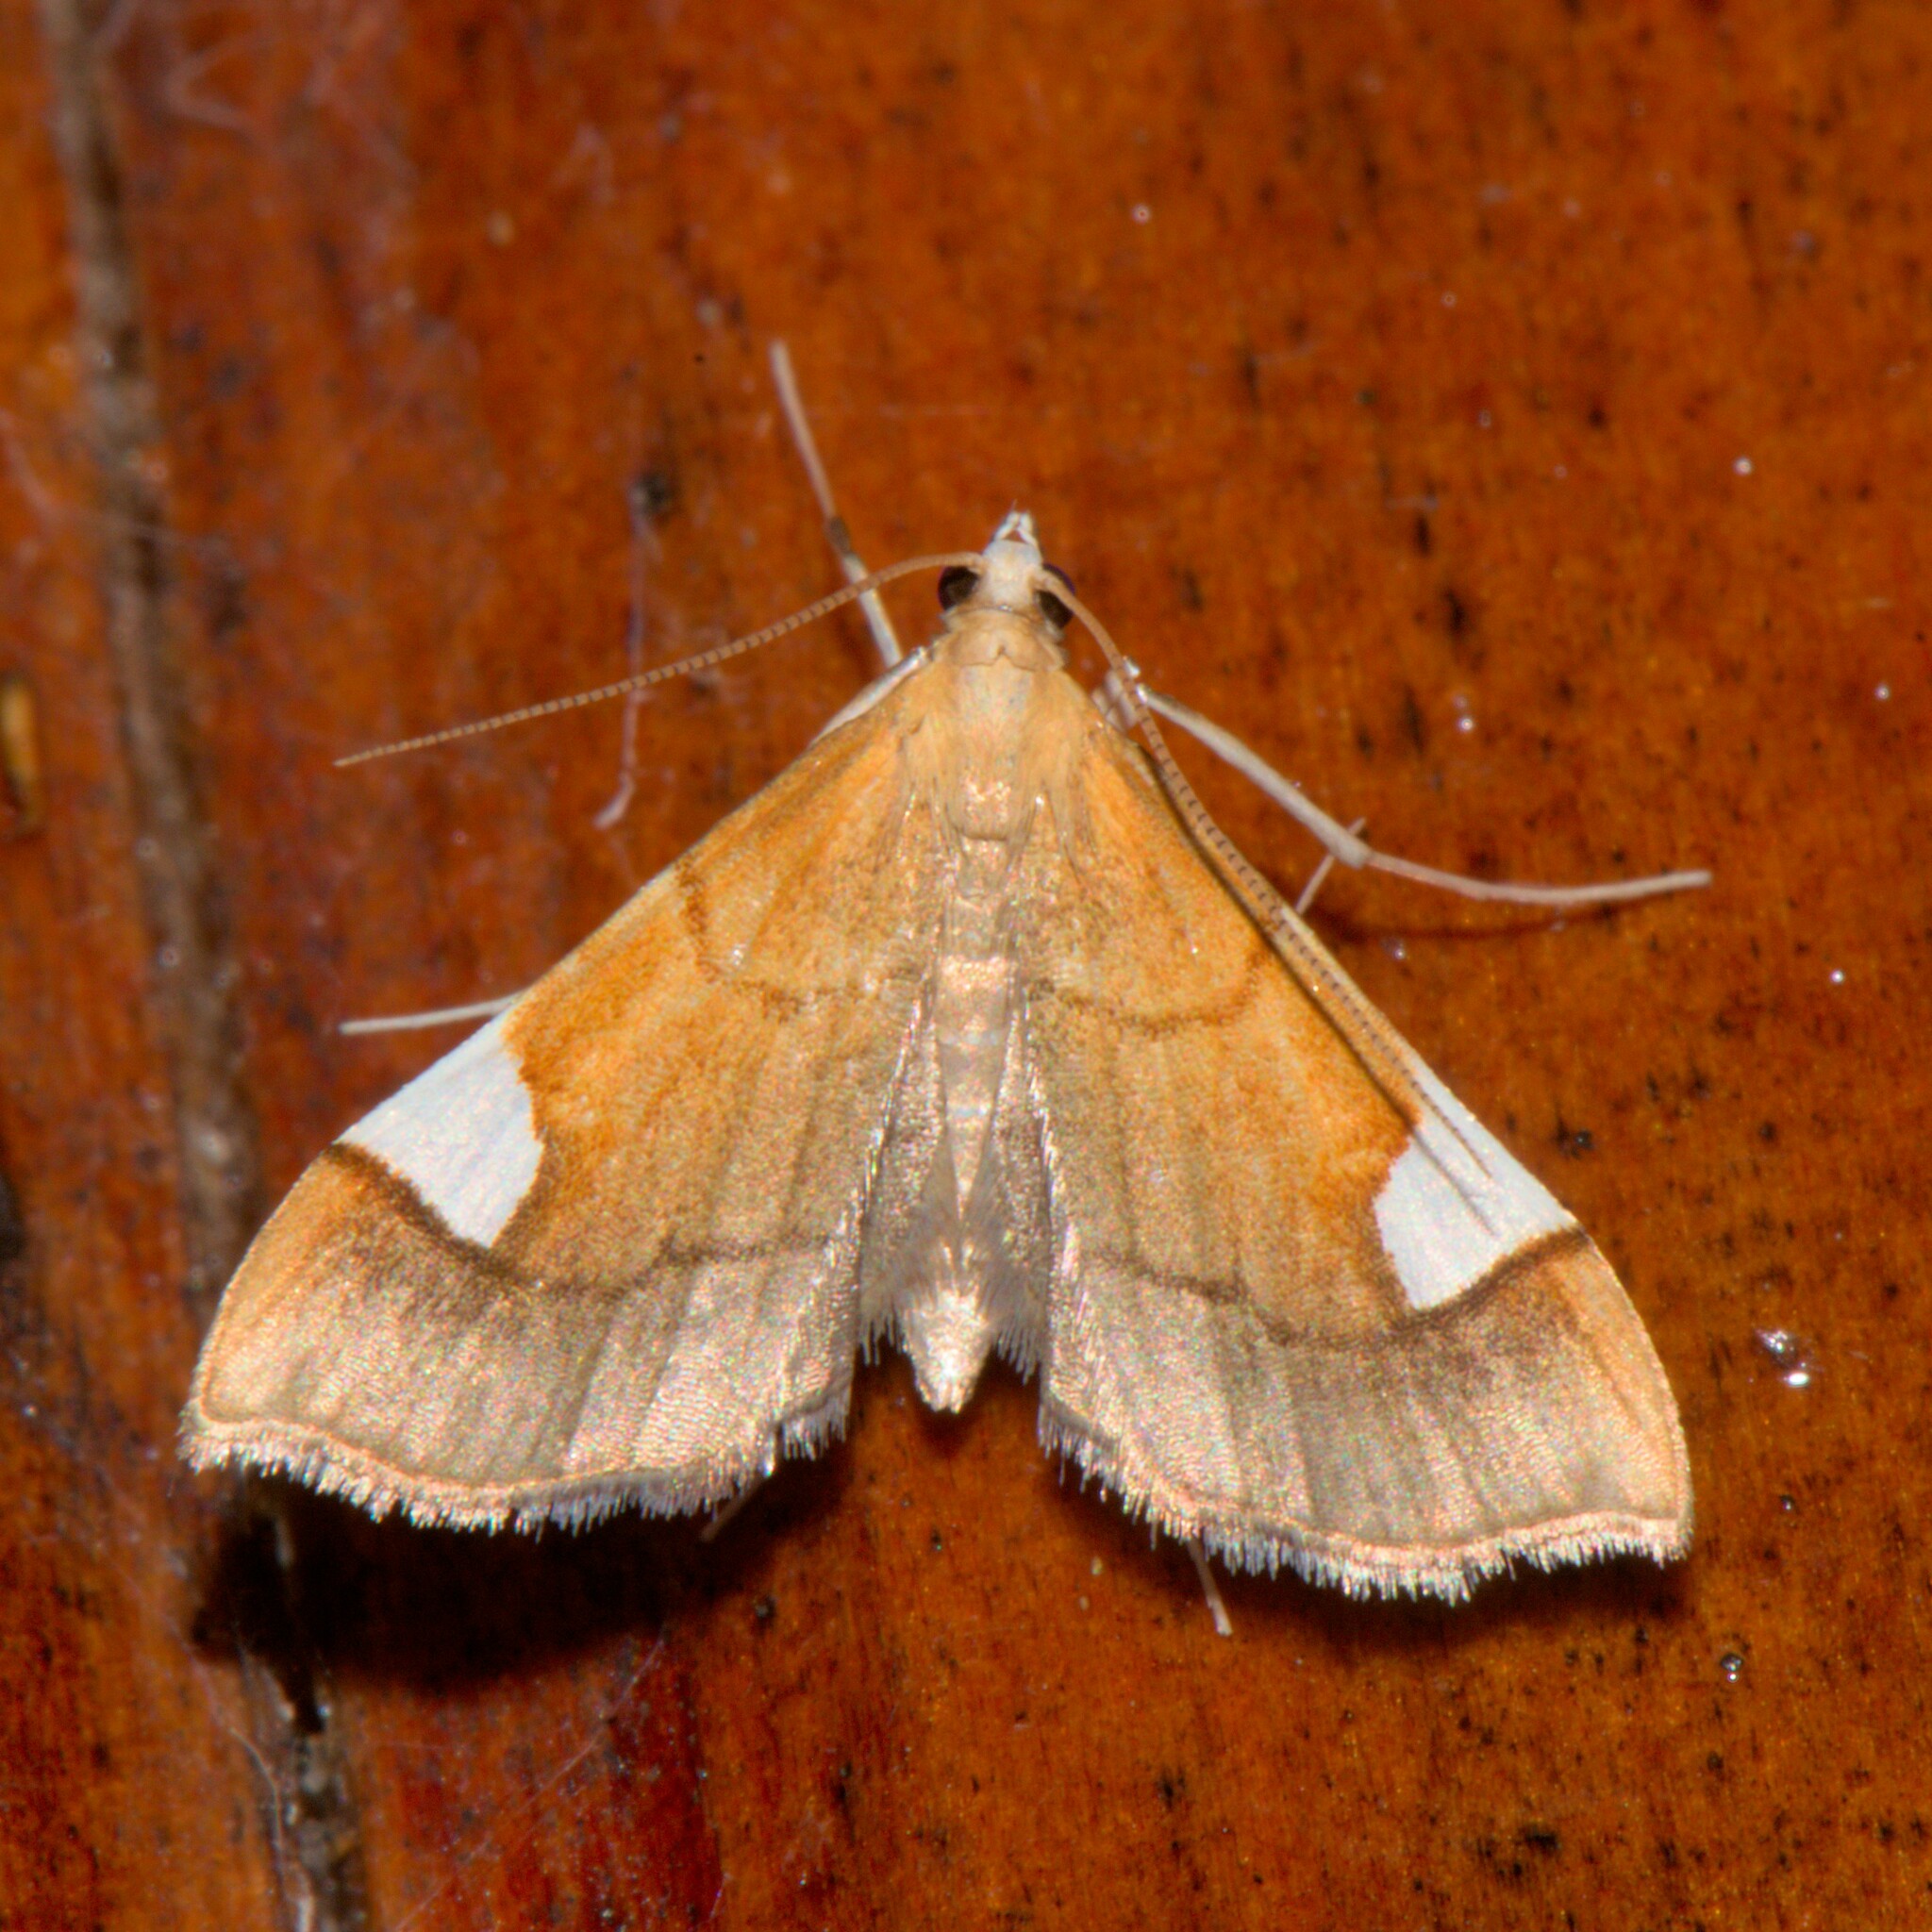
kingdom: Animalia
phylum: Arthropoda
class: Insecta
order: Lepidoptera
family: Crambidae
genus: Diathraustodes
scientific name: Diathraustodes fulvofusa
